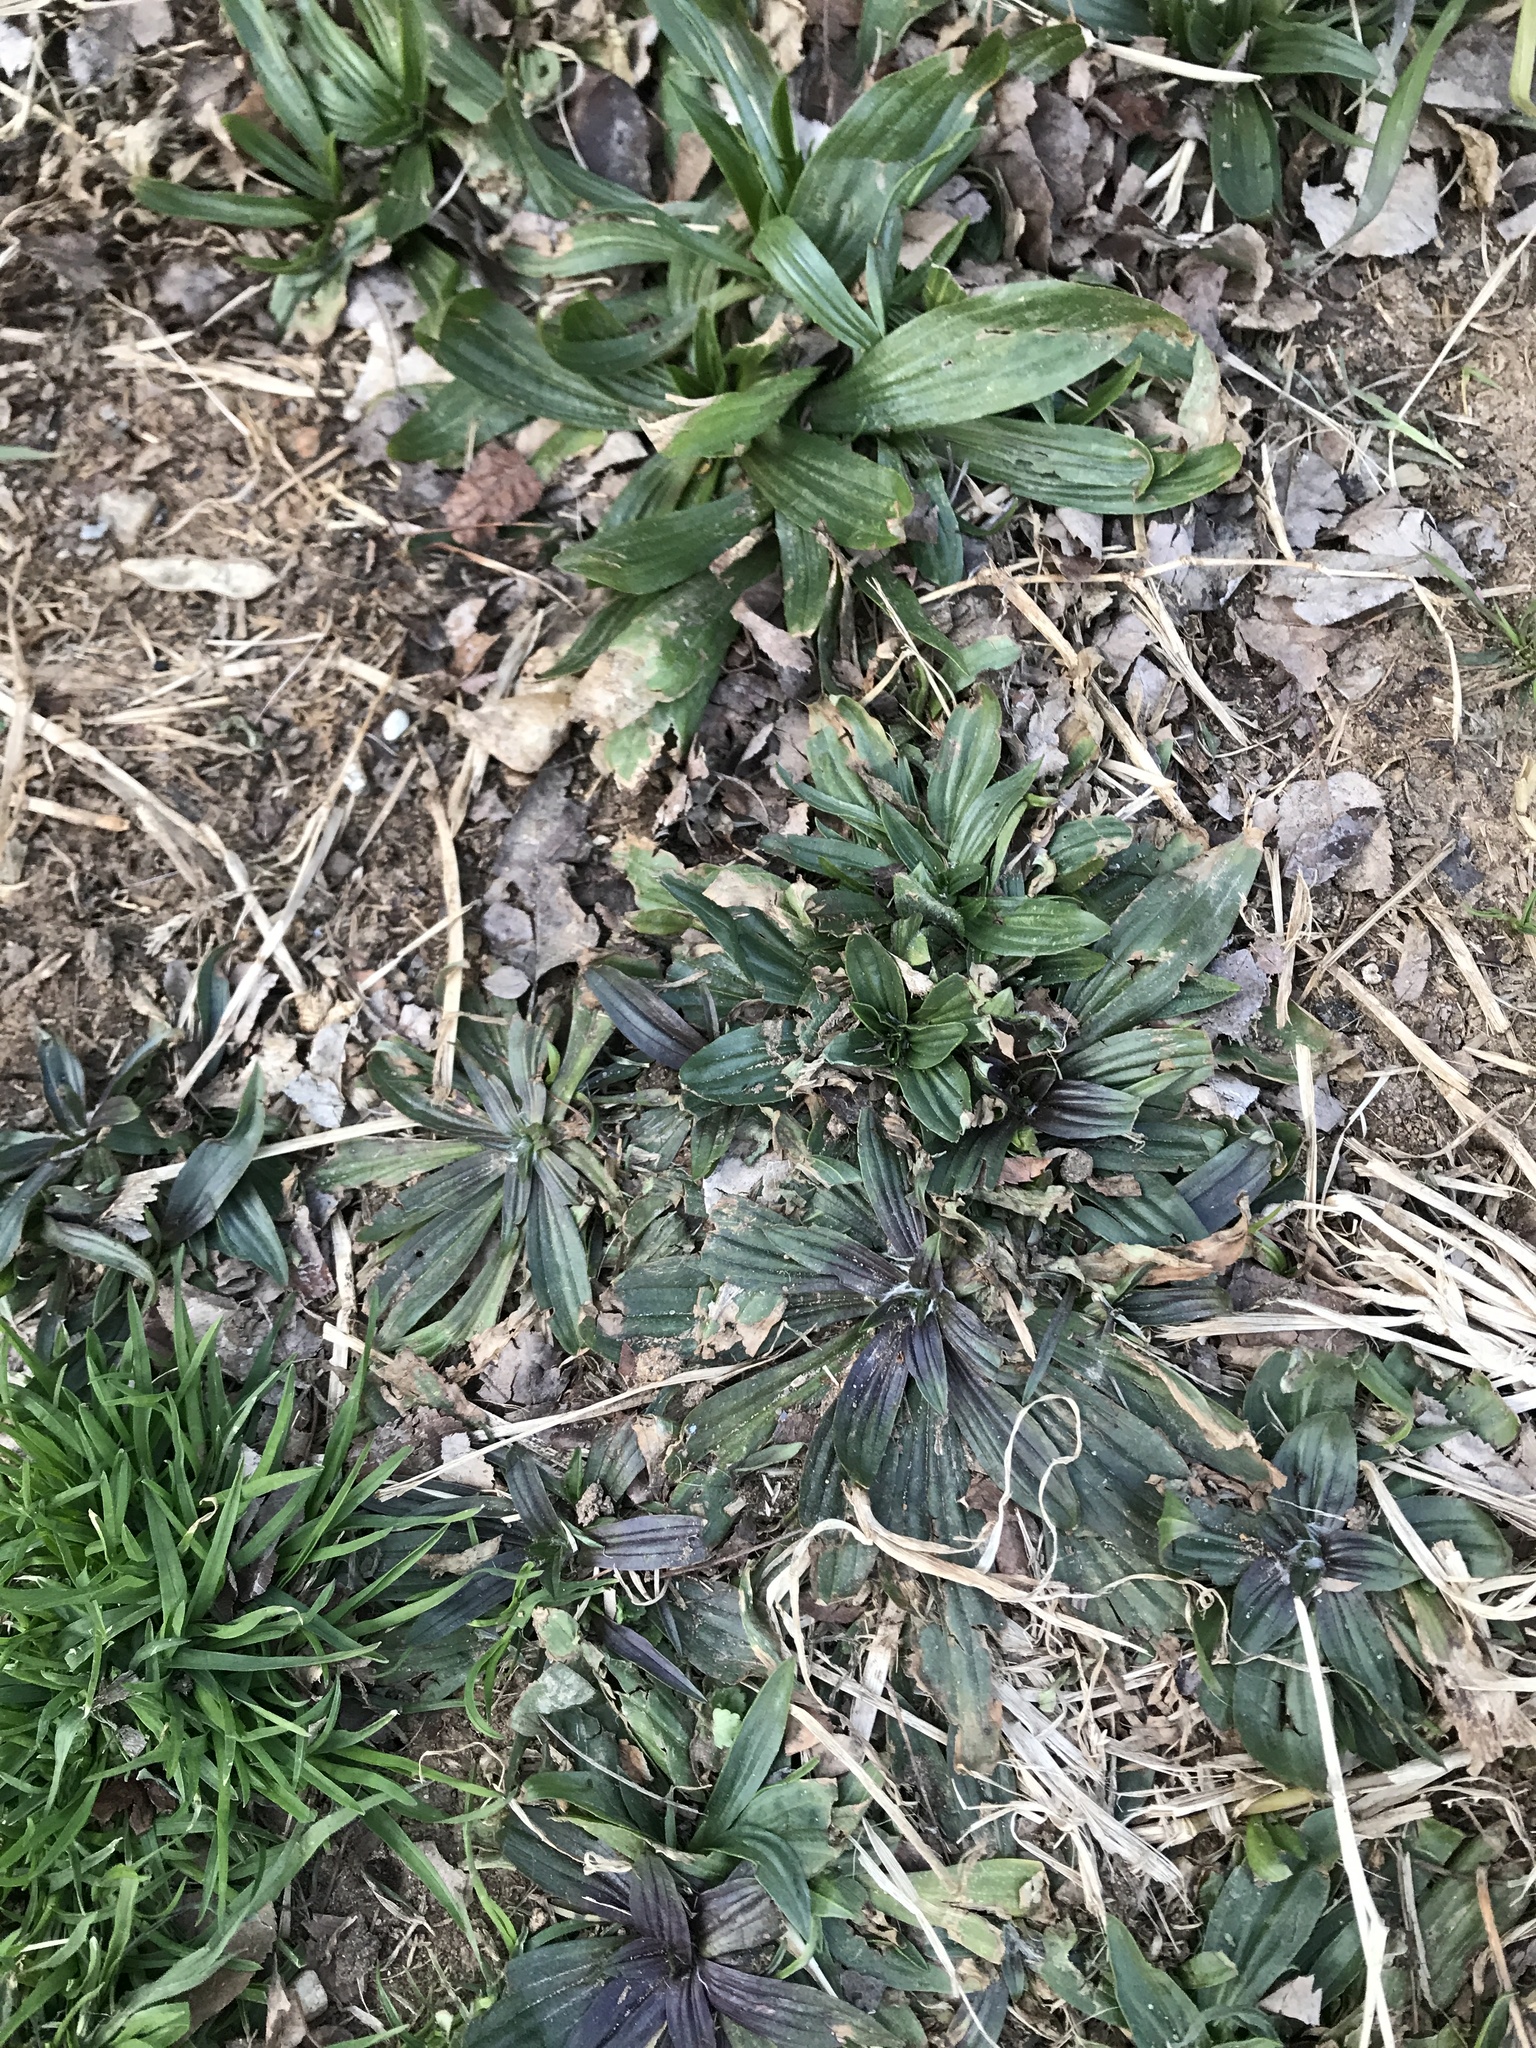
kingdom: Plantae
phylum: Tracheophyta
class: Magnoliopsida
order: Lamiales
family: Plantaginaceae
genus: Plantago
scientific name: Plantago lanceolata
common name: Ribwort plantain
